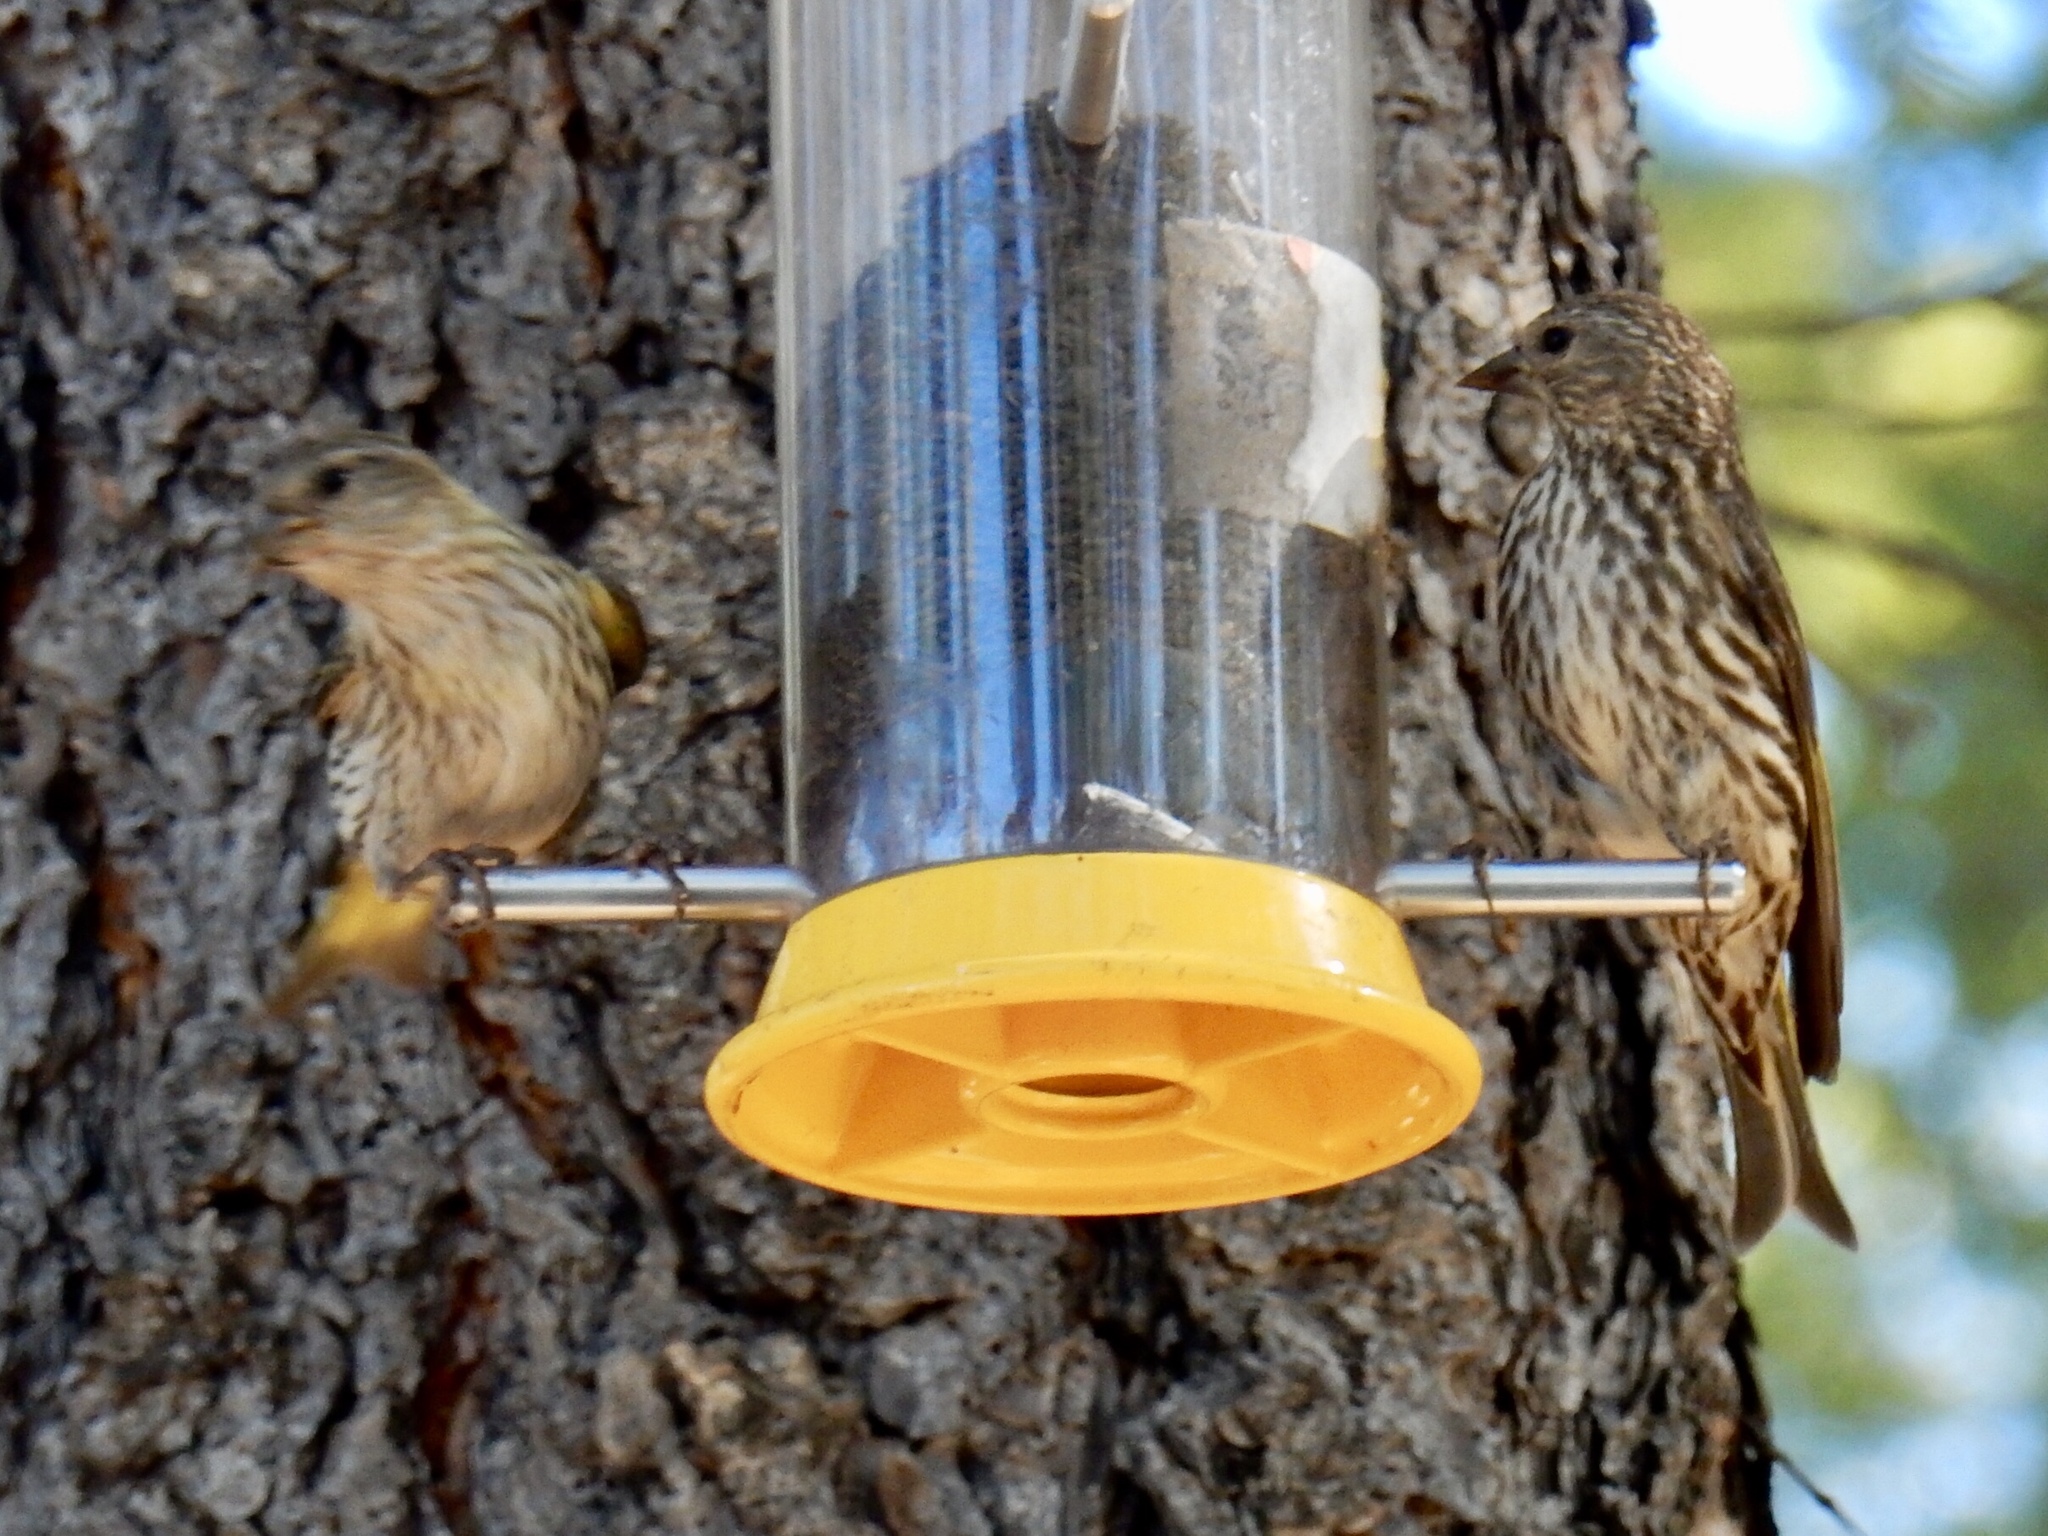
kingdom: Animalia
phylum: Chordata
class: Aves
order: Passeriformes
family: Fringillidae
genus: Spinus
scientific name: Spinus pinus
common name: Pine siskin
